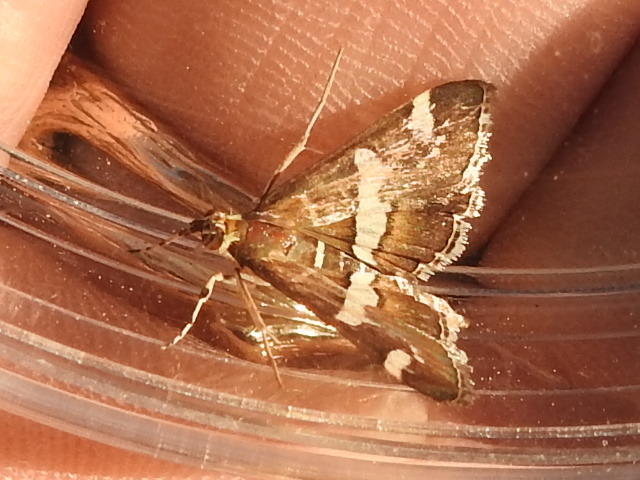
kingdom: Animalia
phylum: Arthropoda
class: Insecta
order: Lepidoptera
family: Crambidae
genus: Spoladea
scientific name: Spoladea recurvalis
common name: Beet webworm moth
